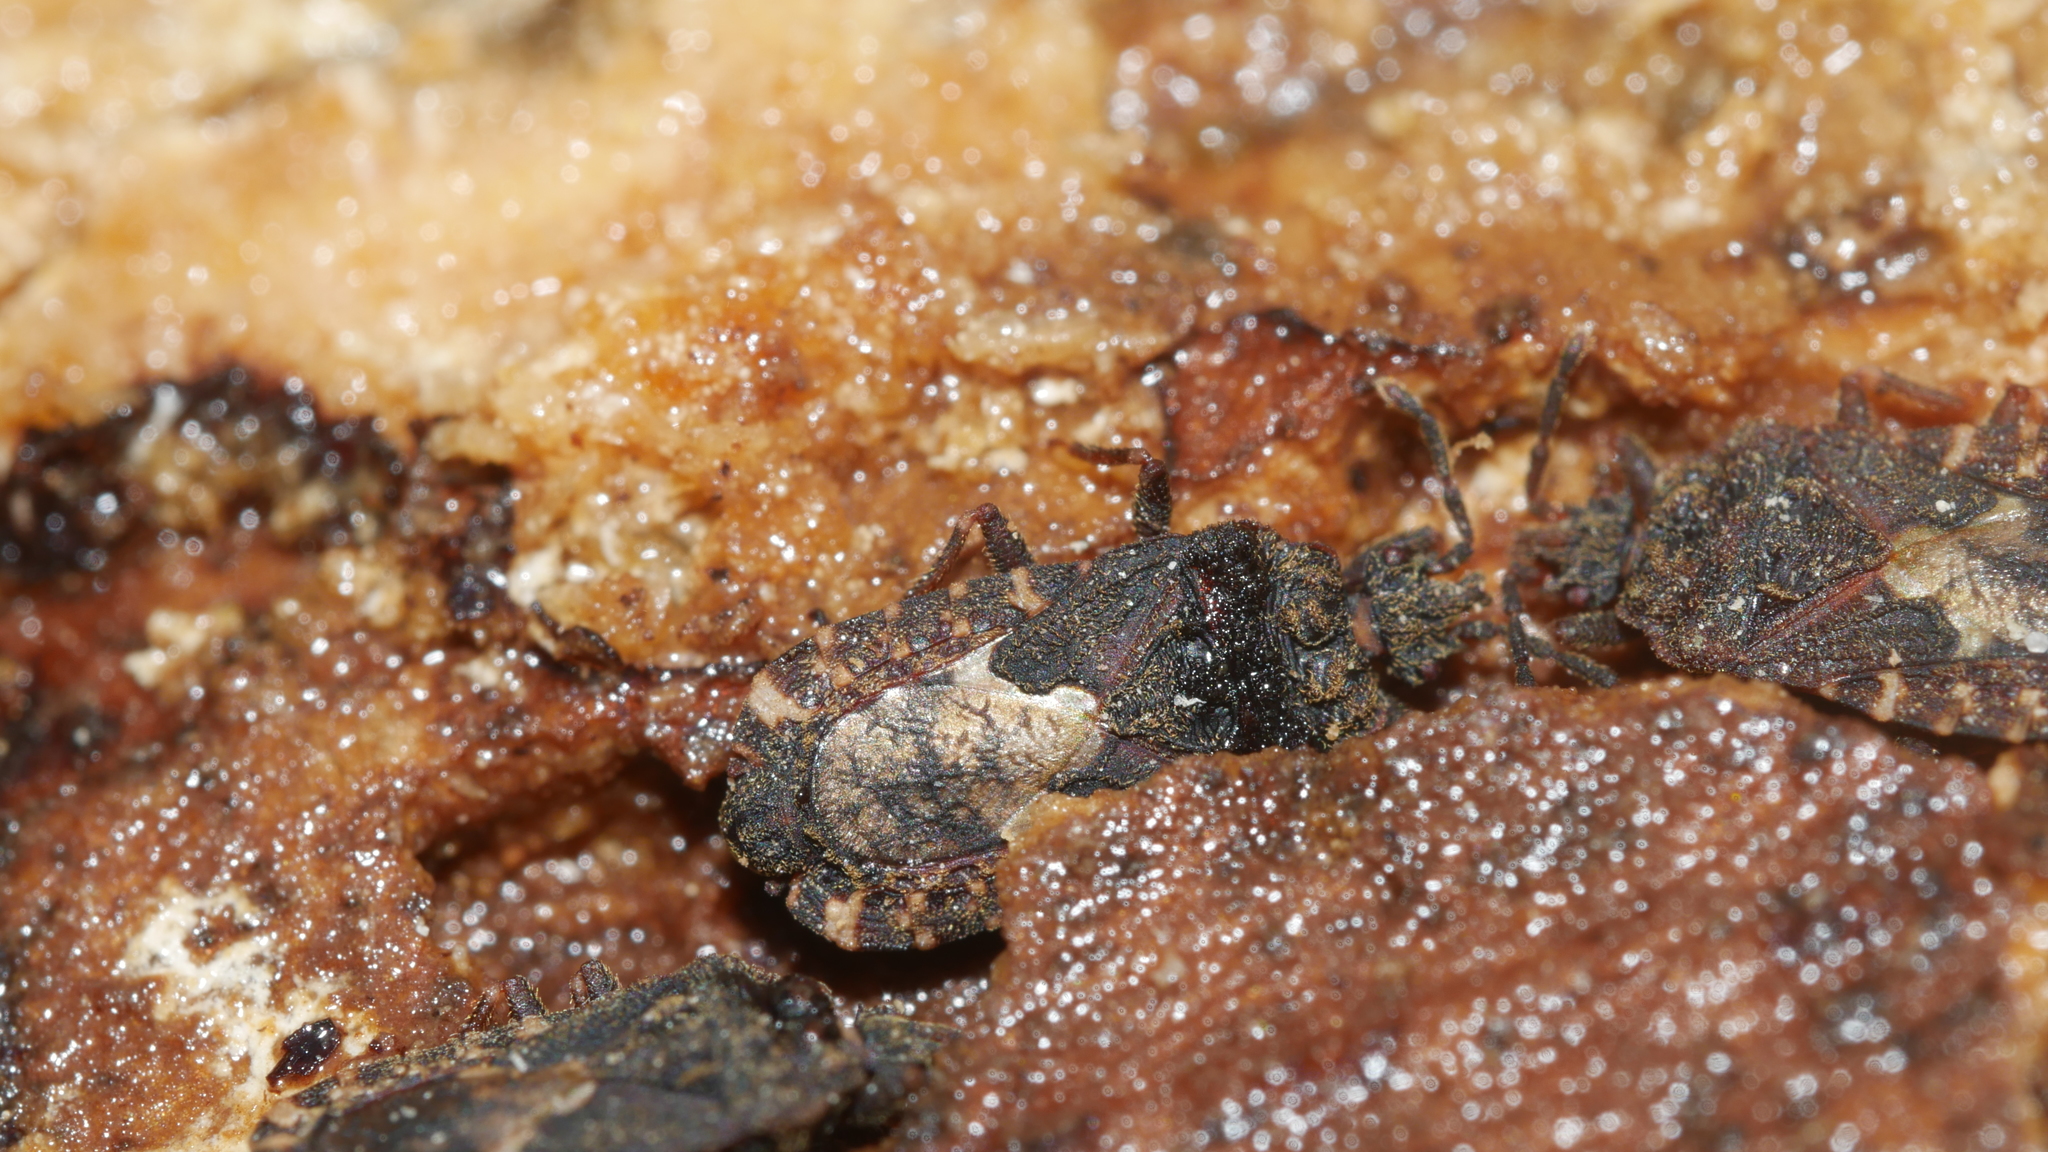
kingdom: Animalia
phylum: Arthropoda
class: Insecta
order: Hemiptera
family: Aradidae
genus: Mezira
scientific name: Mezira
